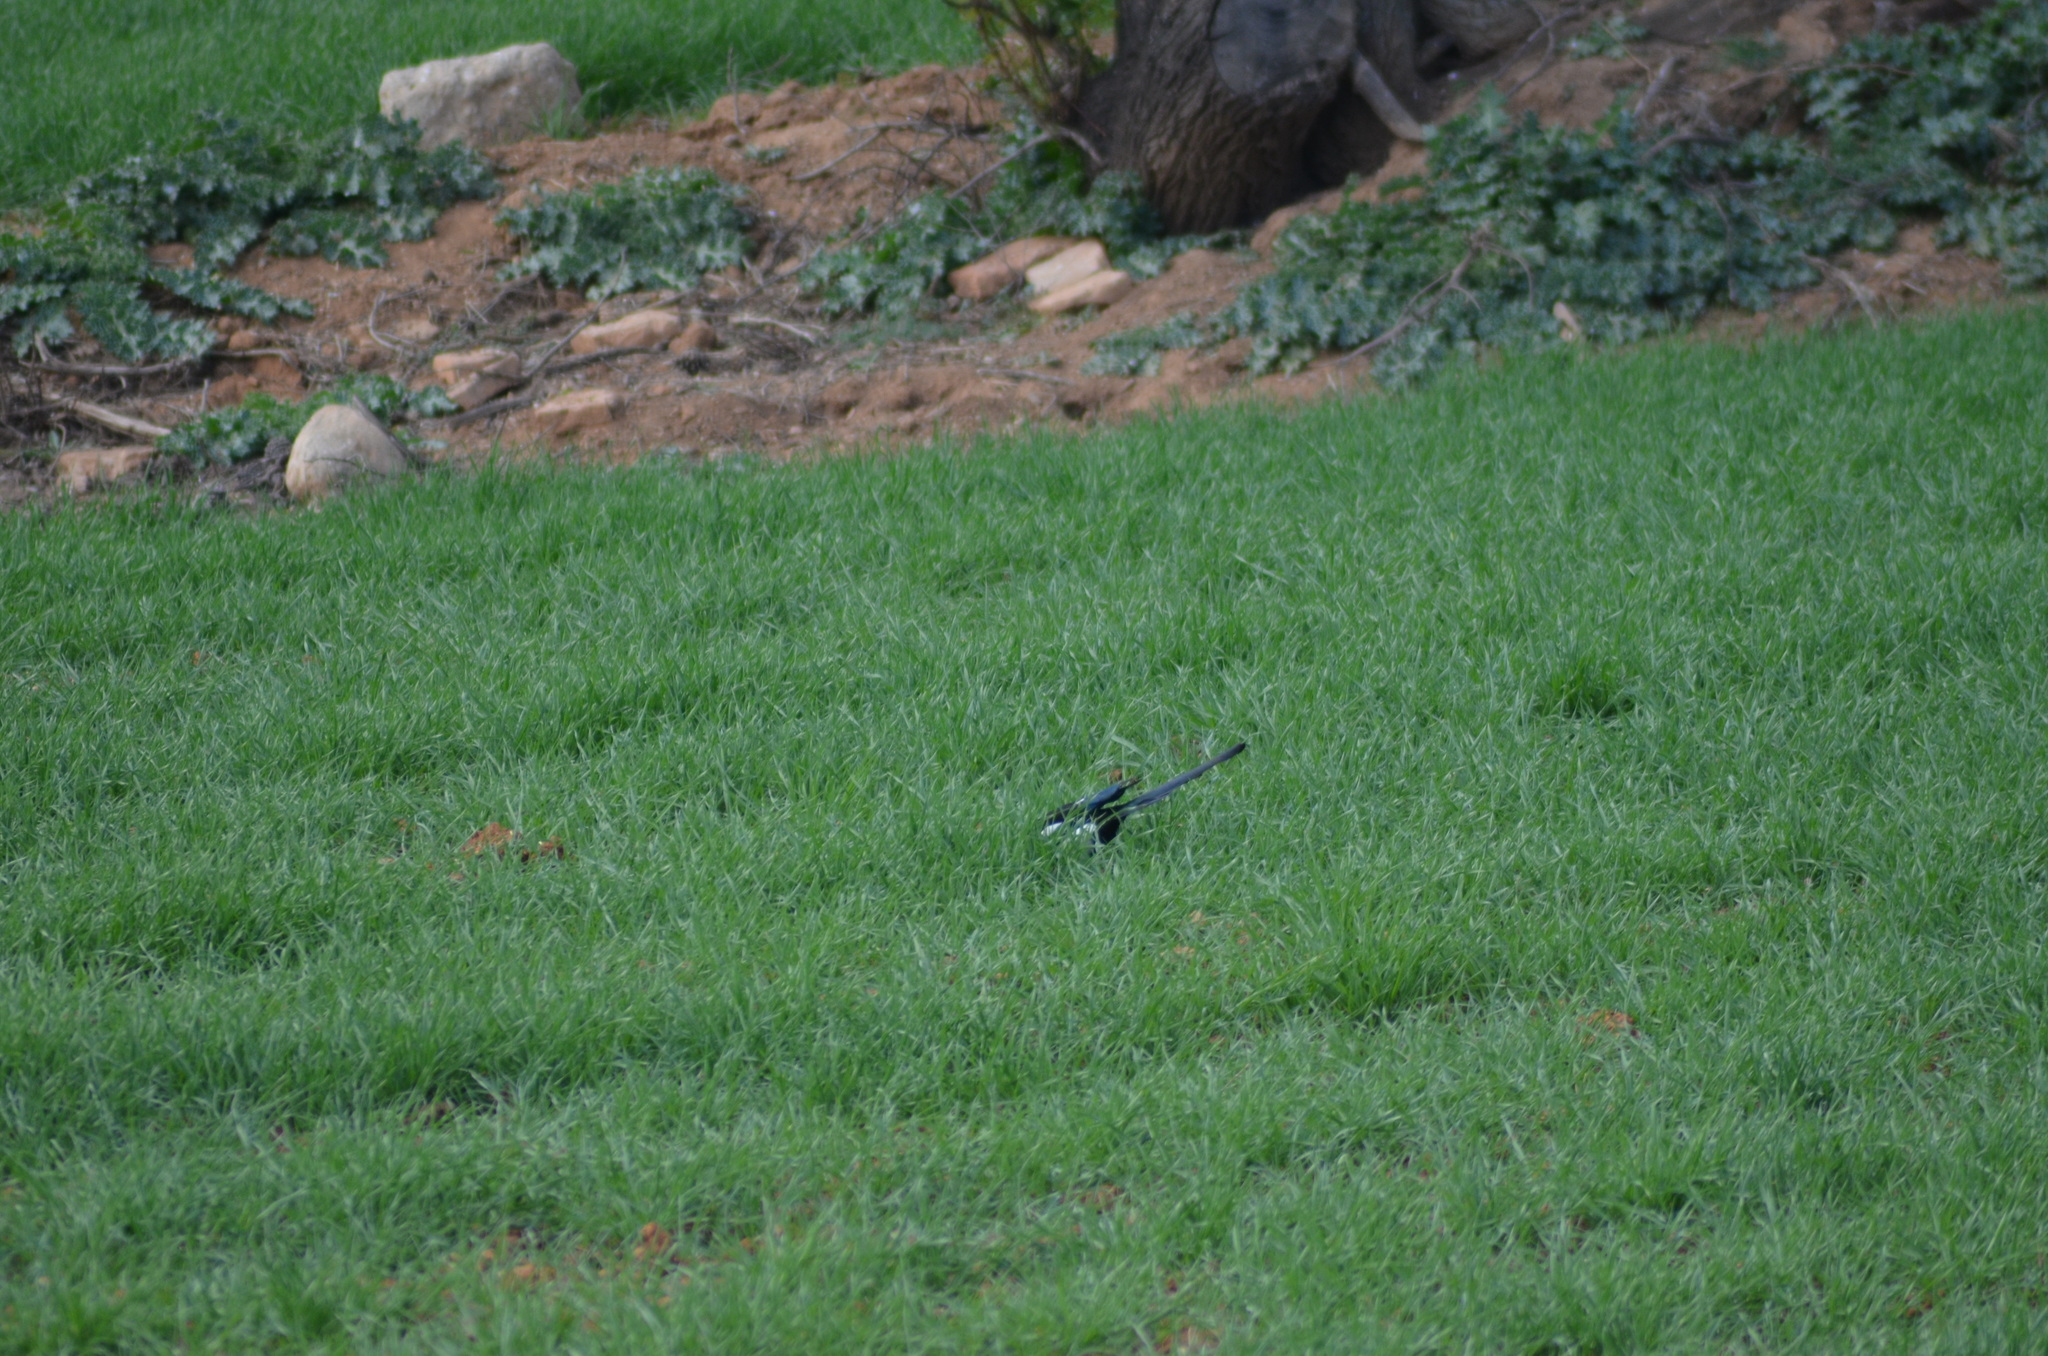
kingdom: Animalia
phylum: Chordata
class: Aves
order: Passeriformes
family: Corvidae
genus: Pica
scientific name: Pica pica
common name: Eurasian magpie
